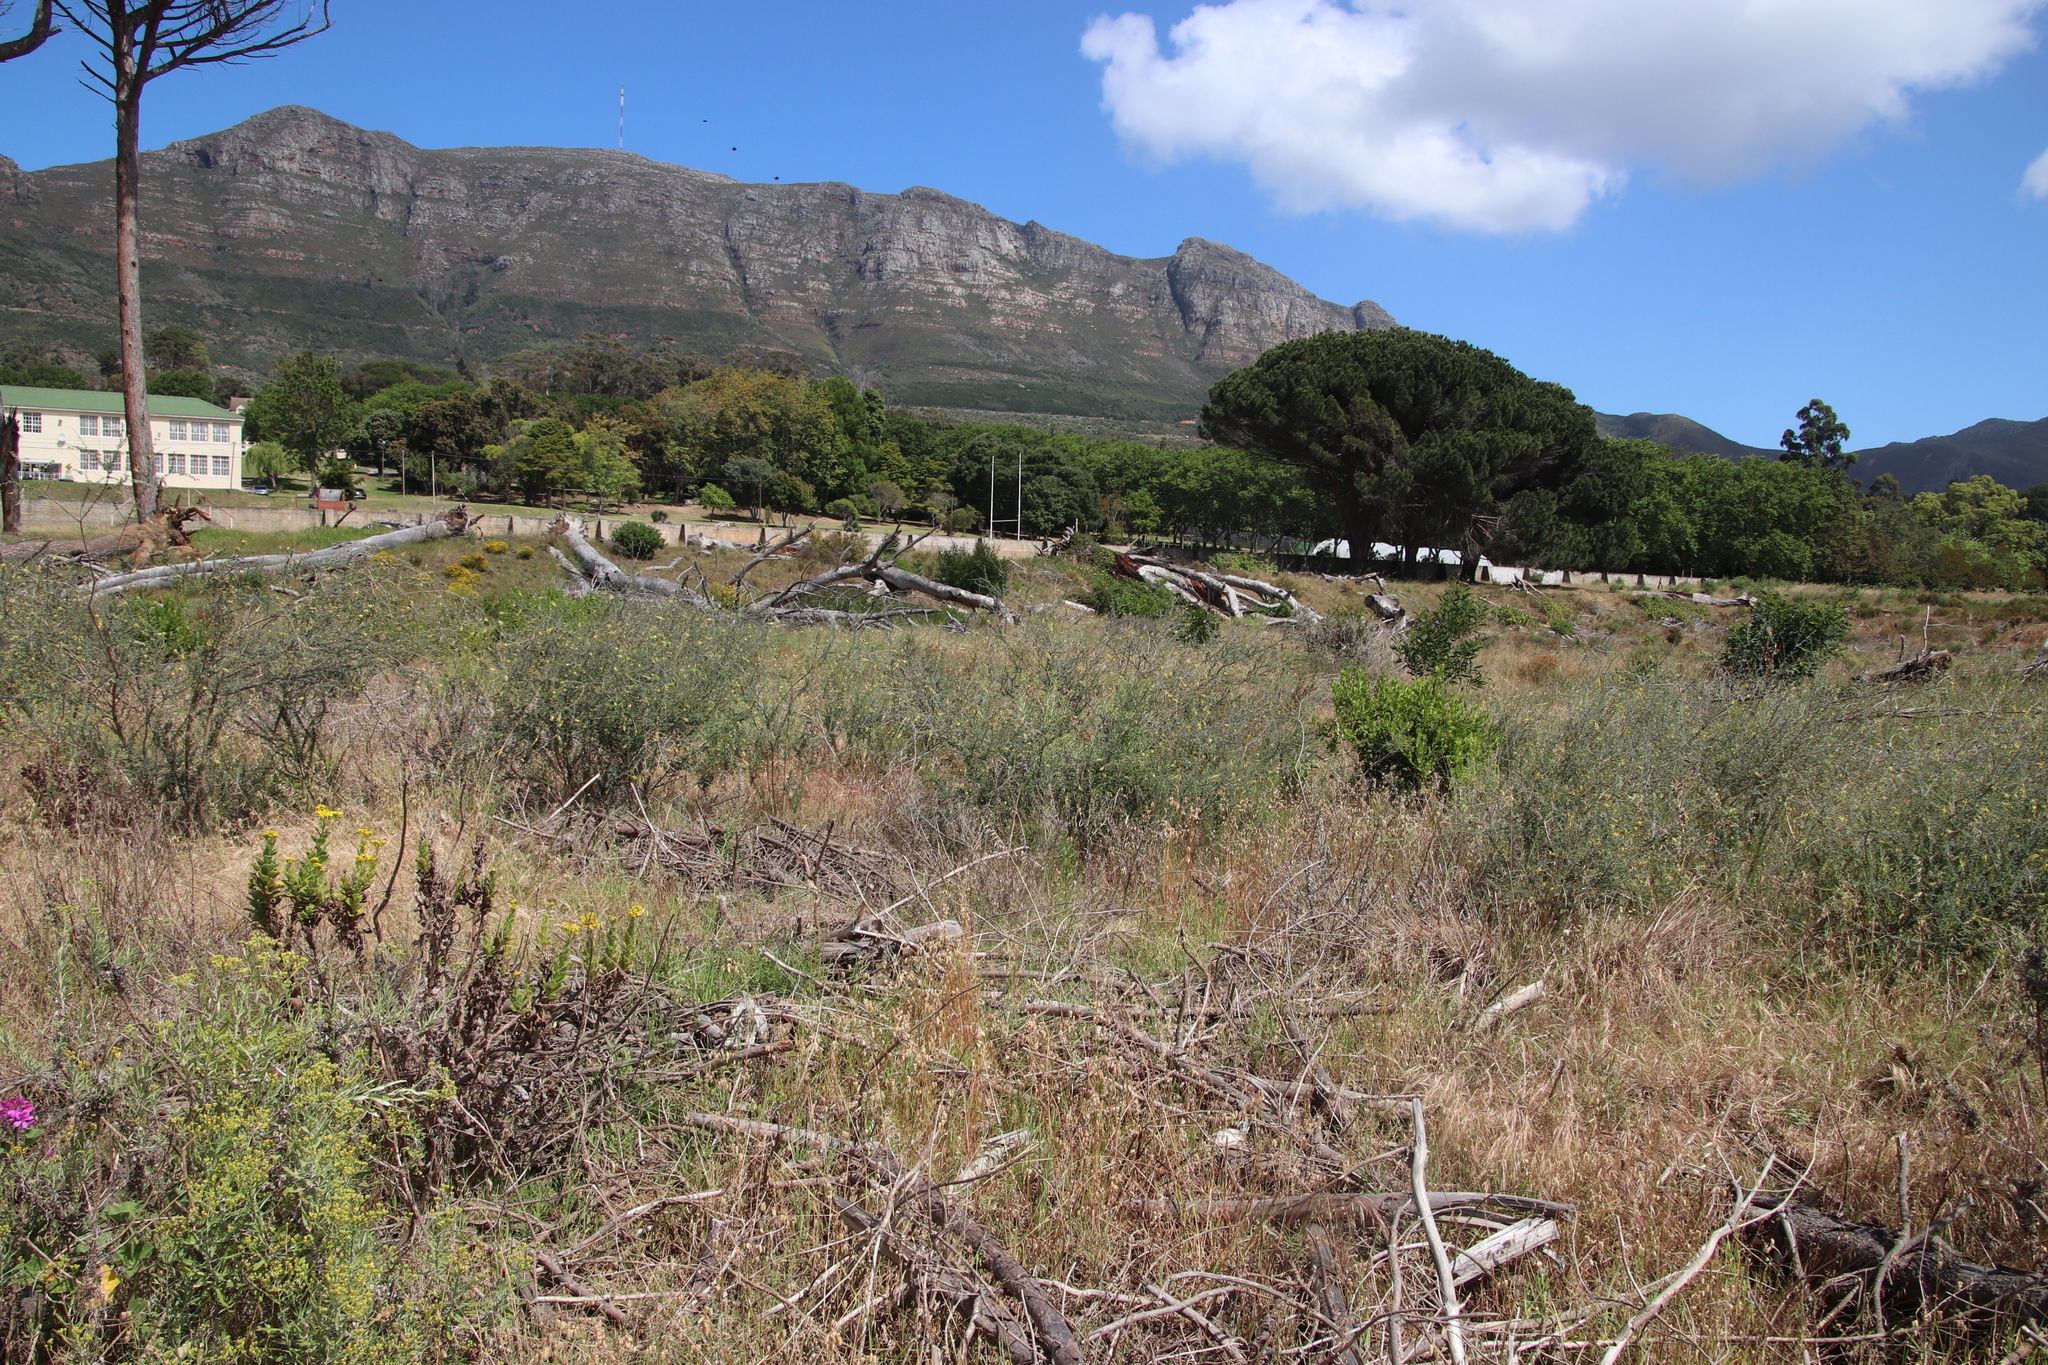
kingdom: Plantae
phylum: Tracheophyta
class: Magnoliopsida
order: Fabales
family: Fabaceae
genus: Wiborgia
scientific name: Wiborgia obcordata
